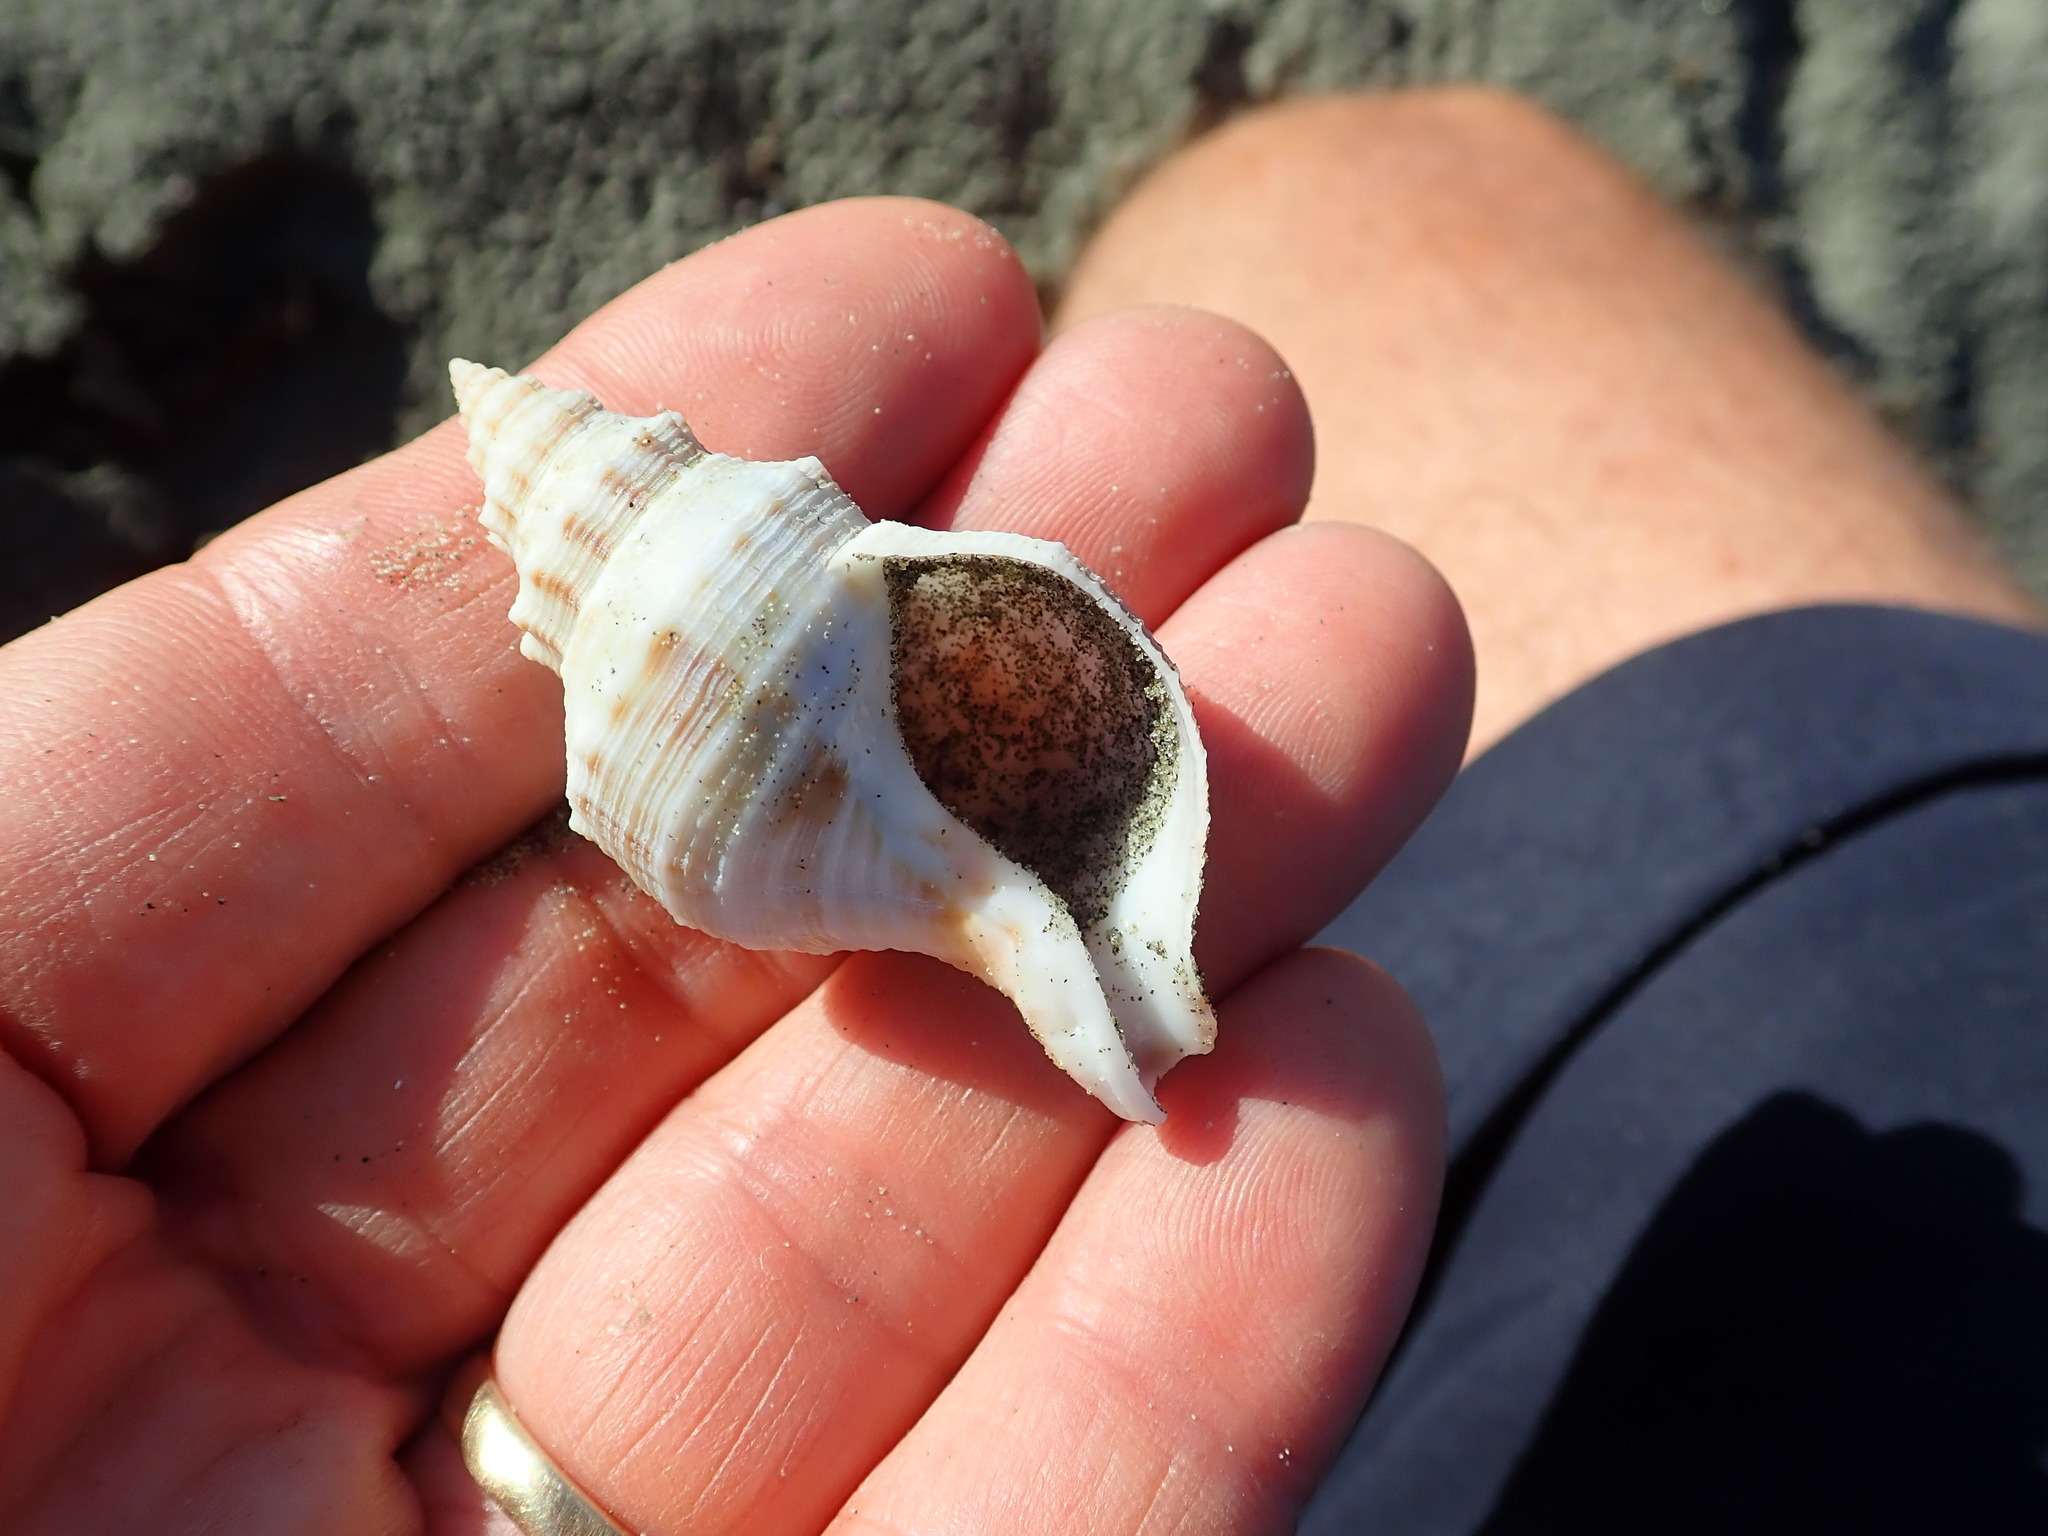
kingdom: Animalia
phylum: Mollusca
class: Gastropoda
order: Neogastropoda
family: Prosiphonidae
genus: Austrofusus
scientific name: Austrofusus glans
